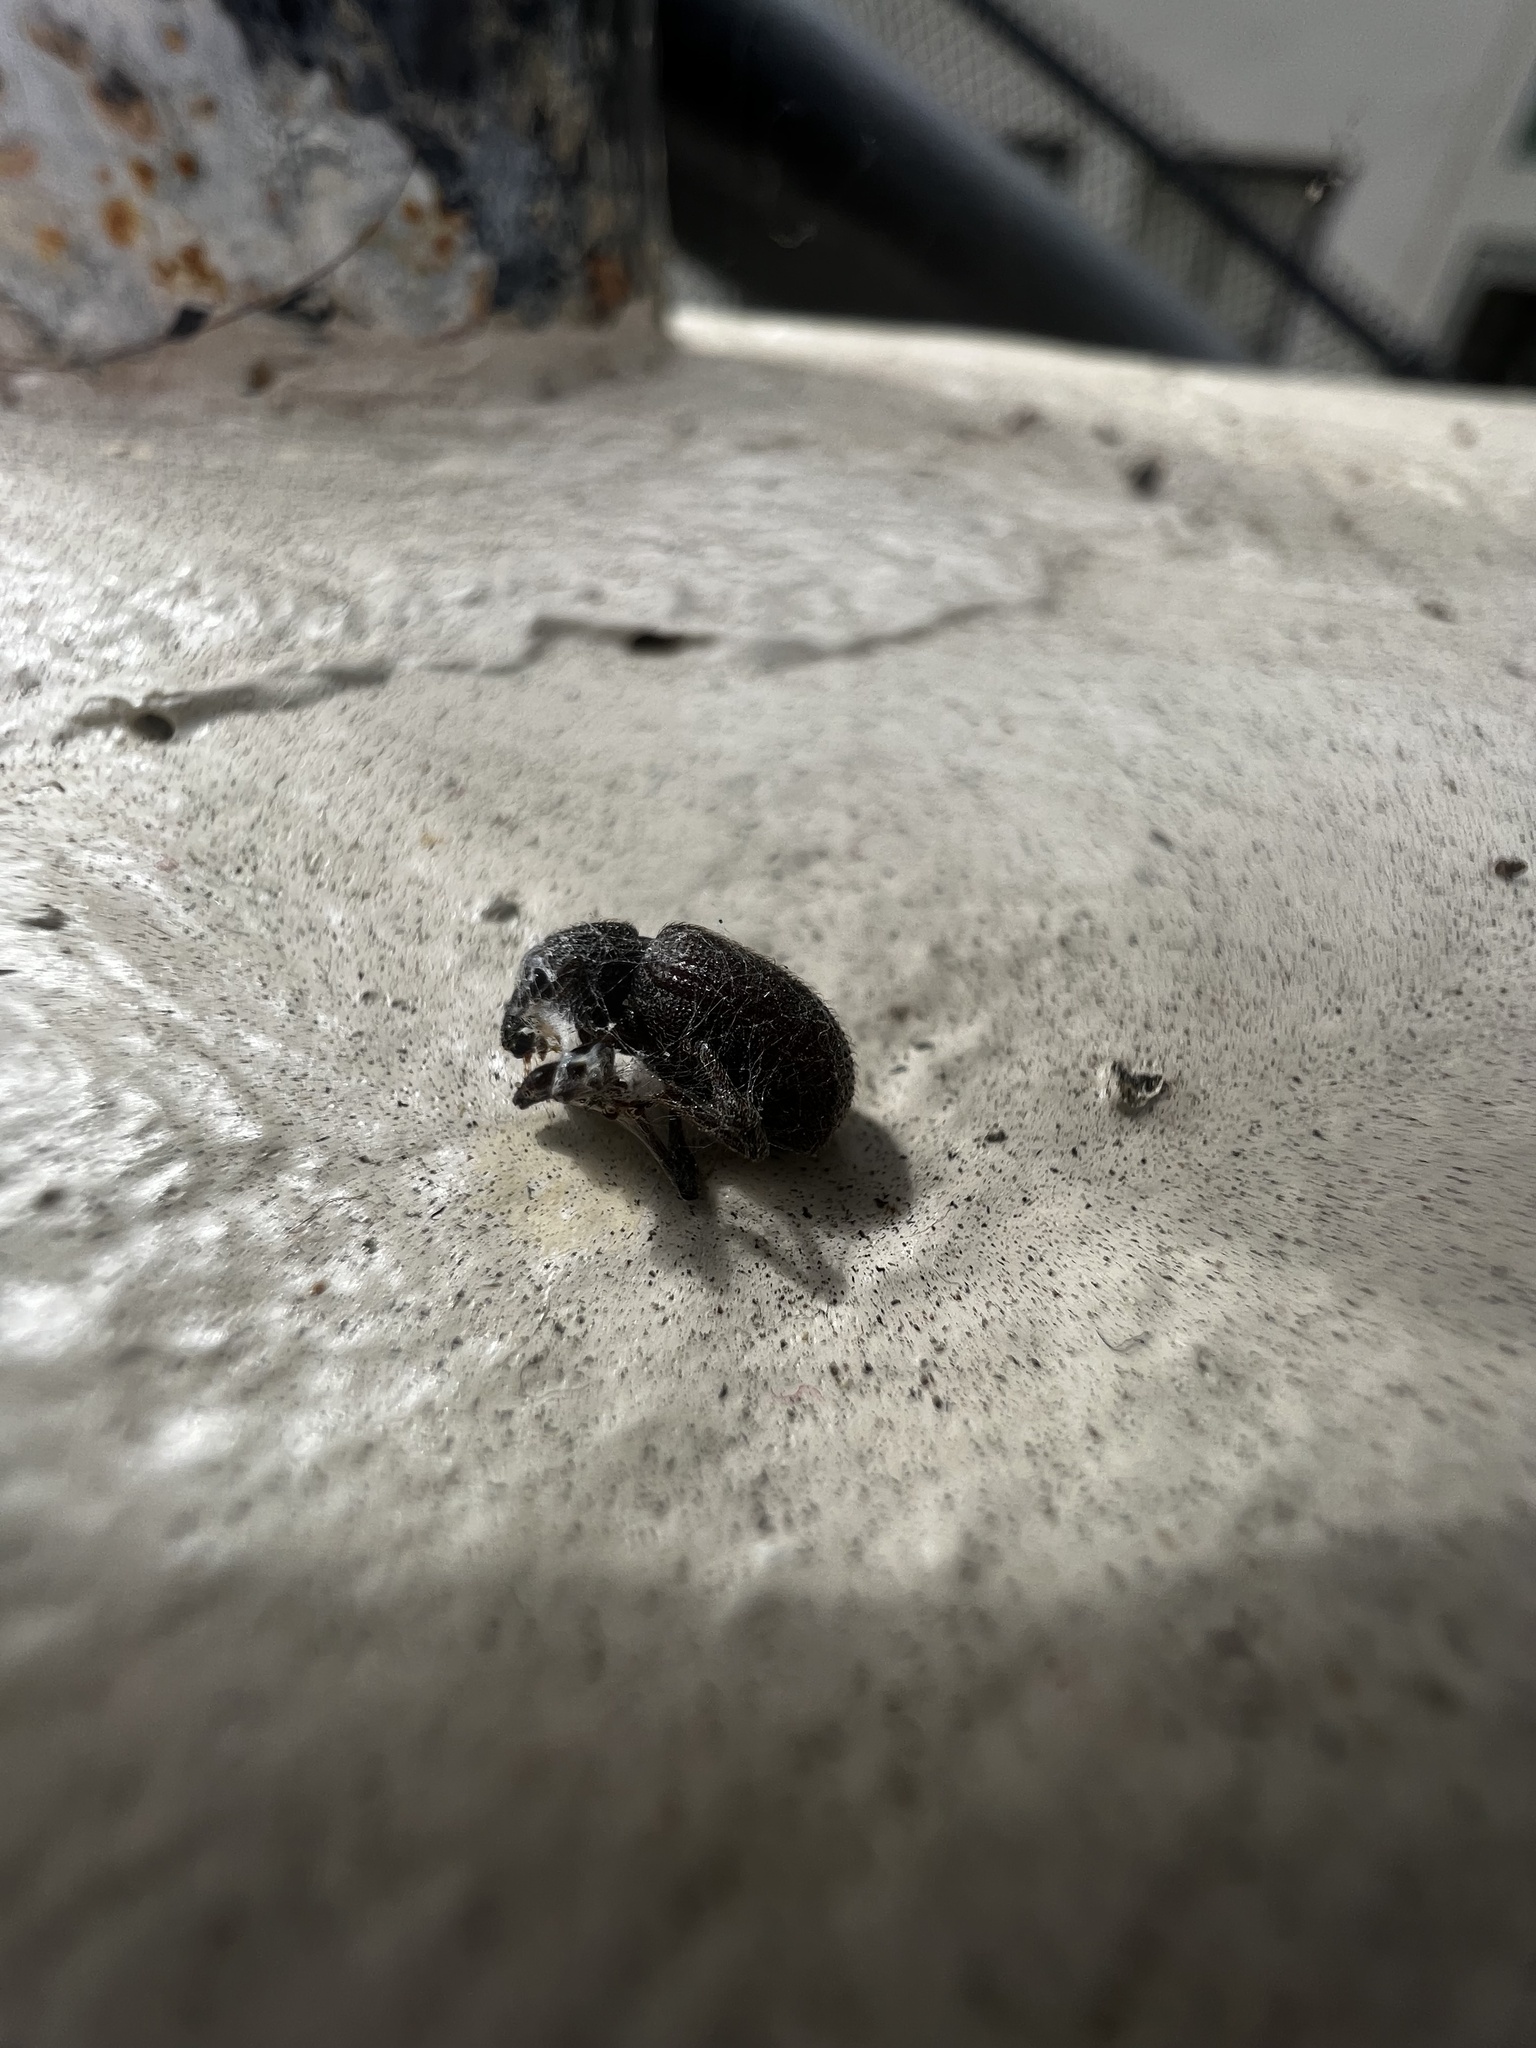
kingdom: Animalia
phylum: Arthropoda
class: Insecta
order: Coleoptera
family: Curculionidae
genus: Otiorhynchus
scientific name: Otiorhynchus rugosostriatus
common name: Weevil
